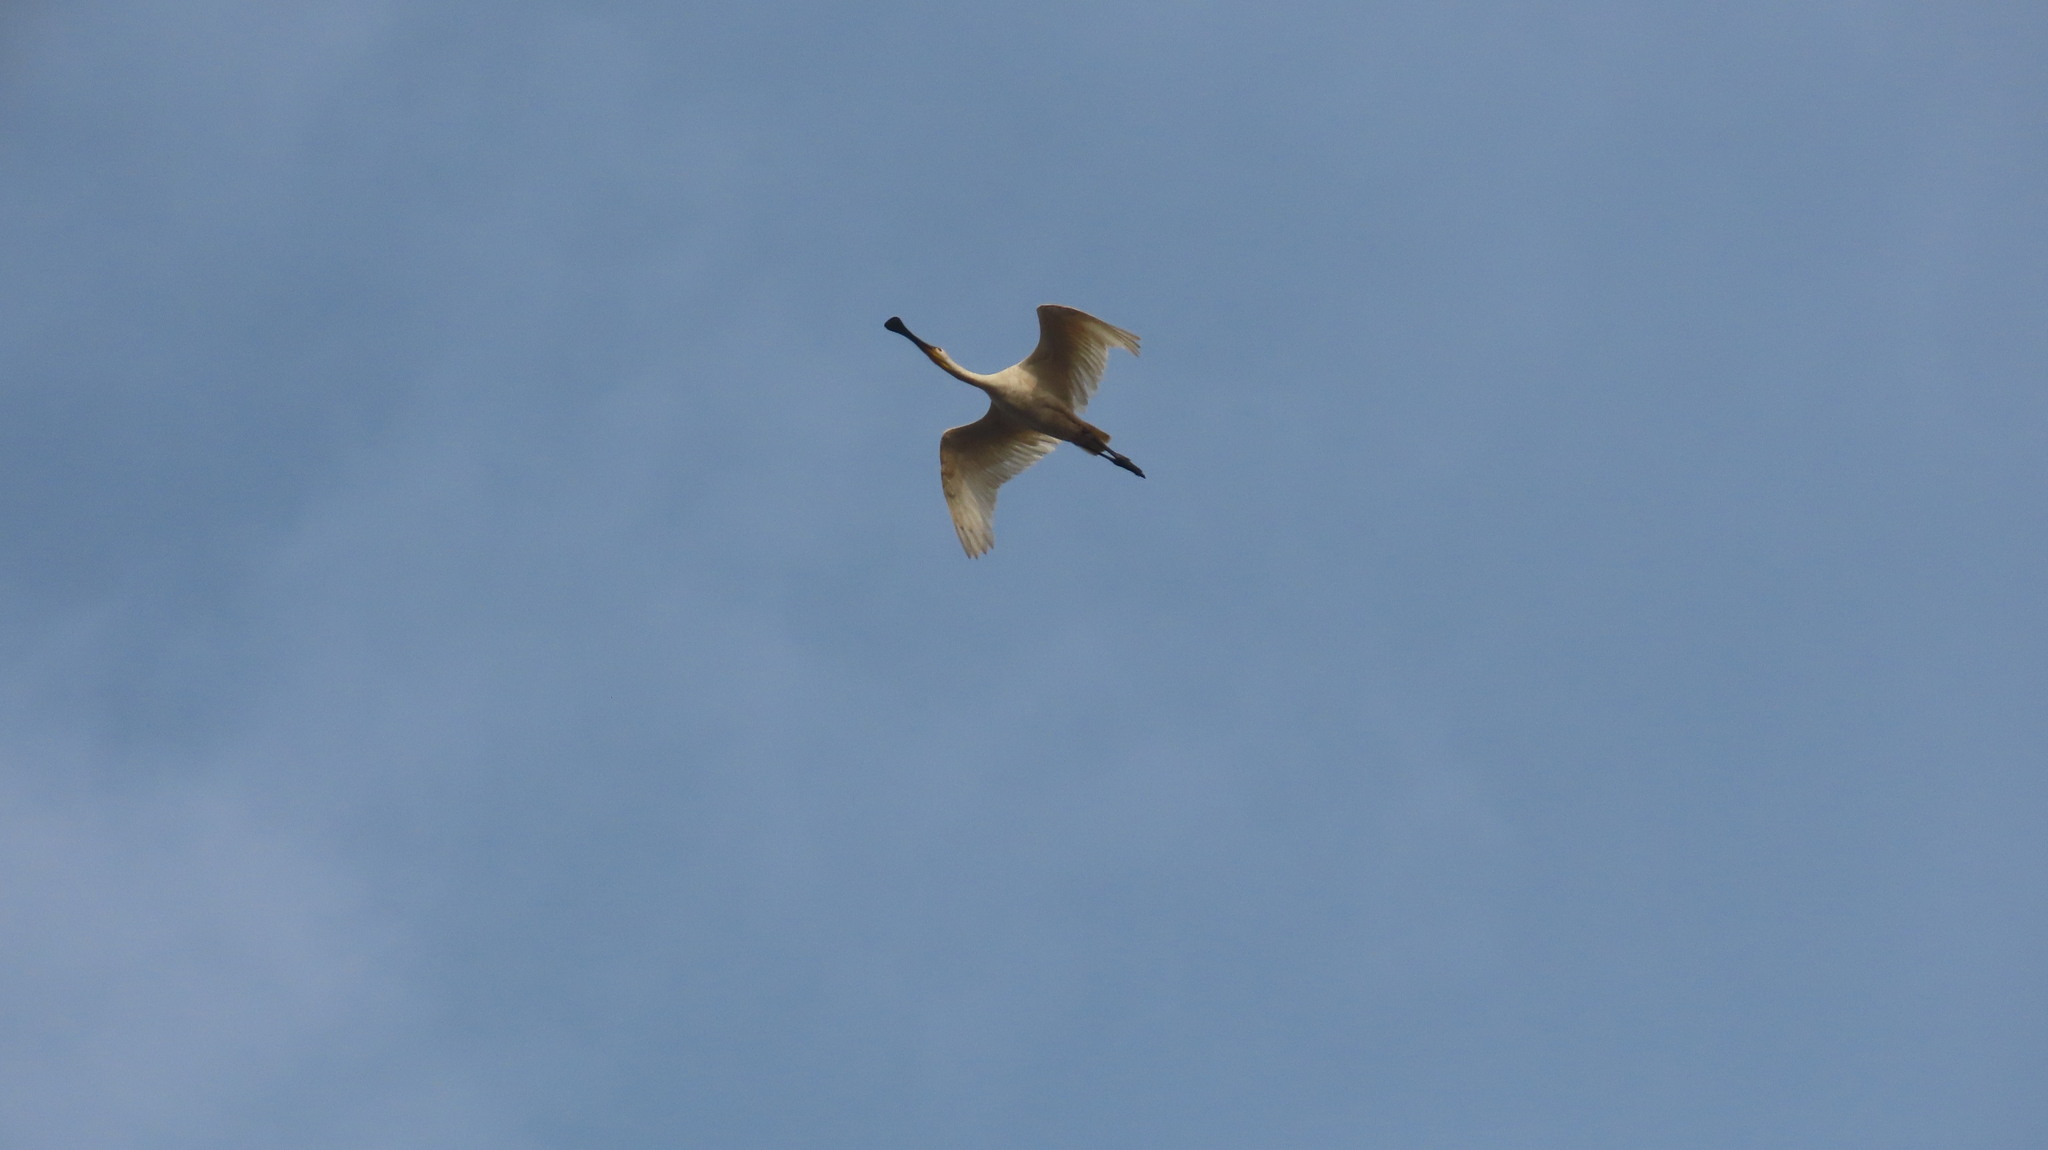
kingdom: Animalia
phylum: Chordata
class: Aves
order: Pelecaniformes
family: Threskiornithidae
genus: Platalea
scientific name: Platalea leucorodia
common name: Eurasian spoonbill
